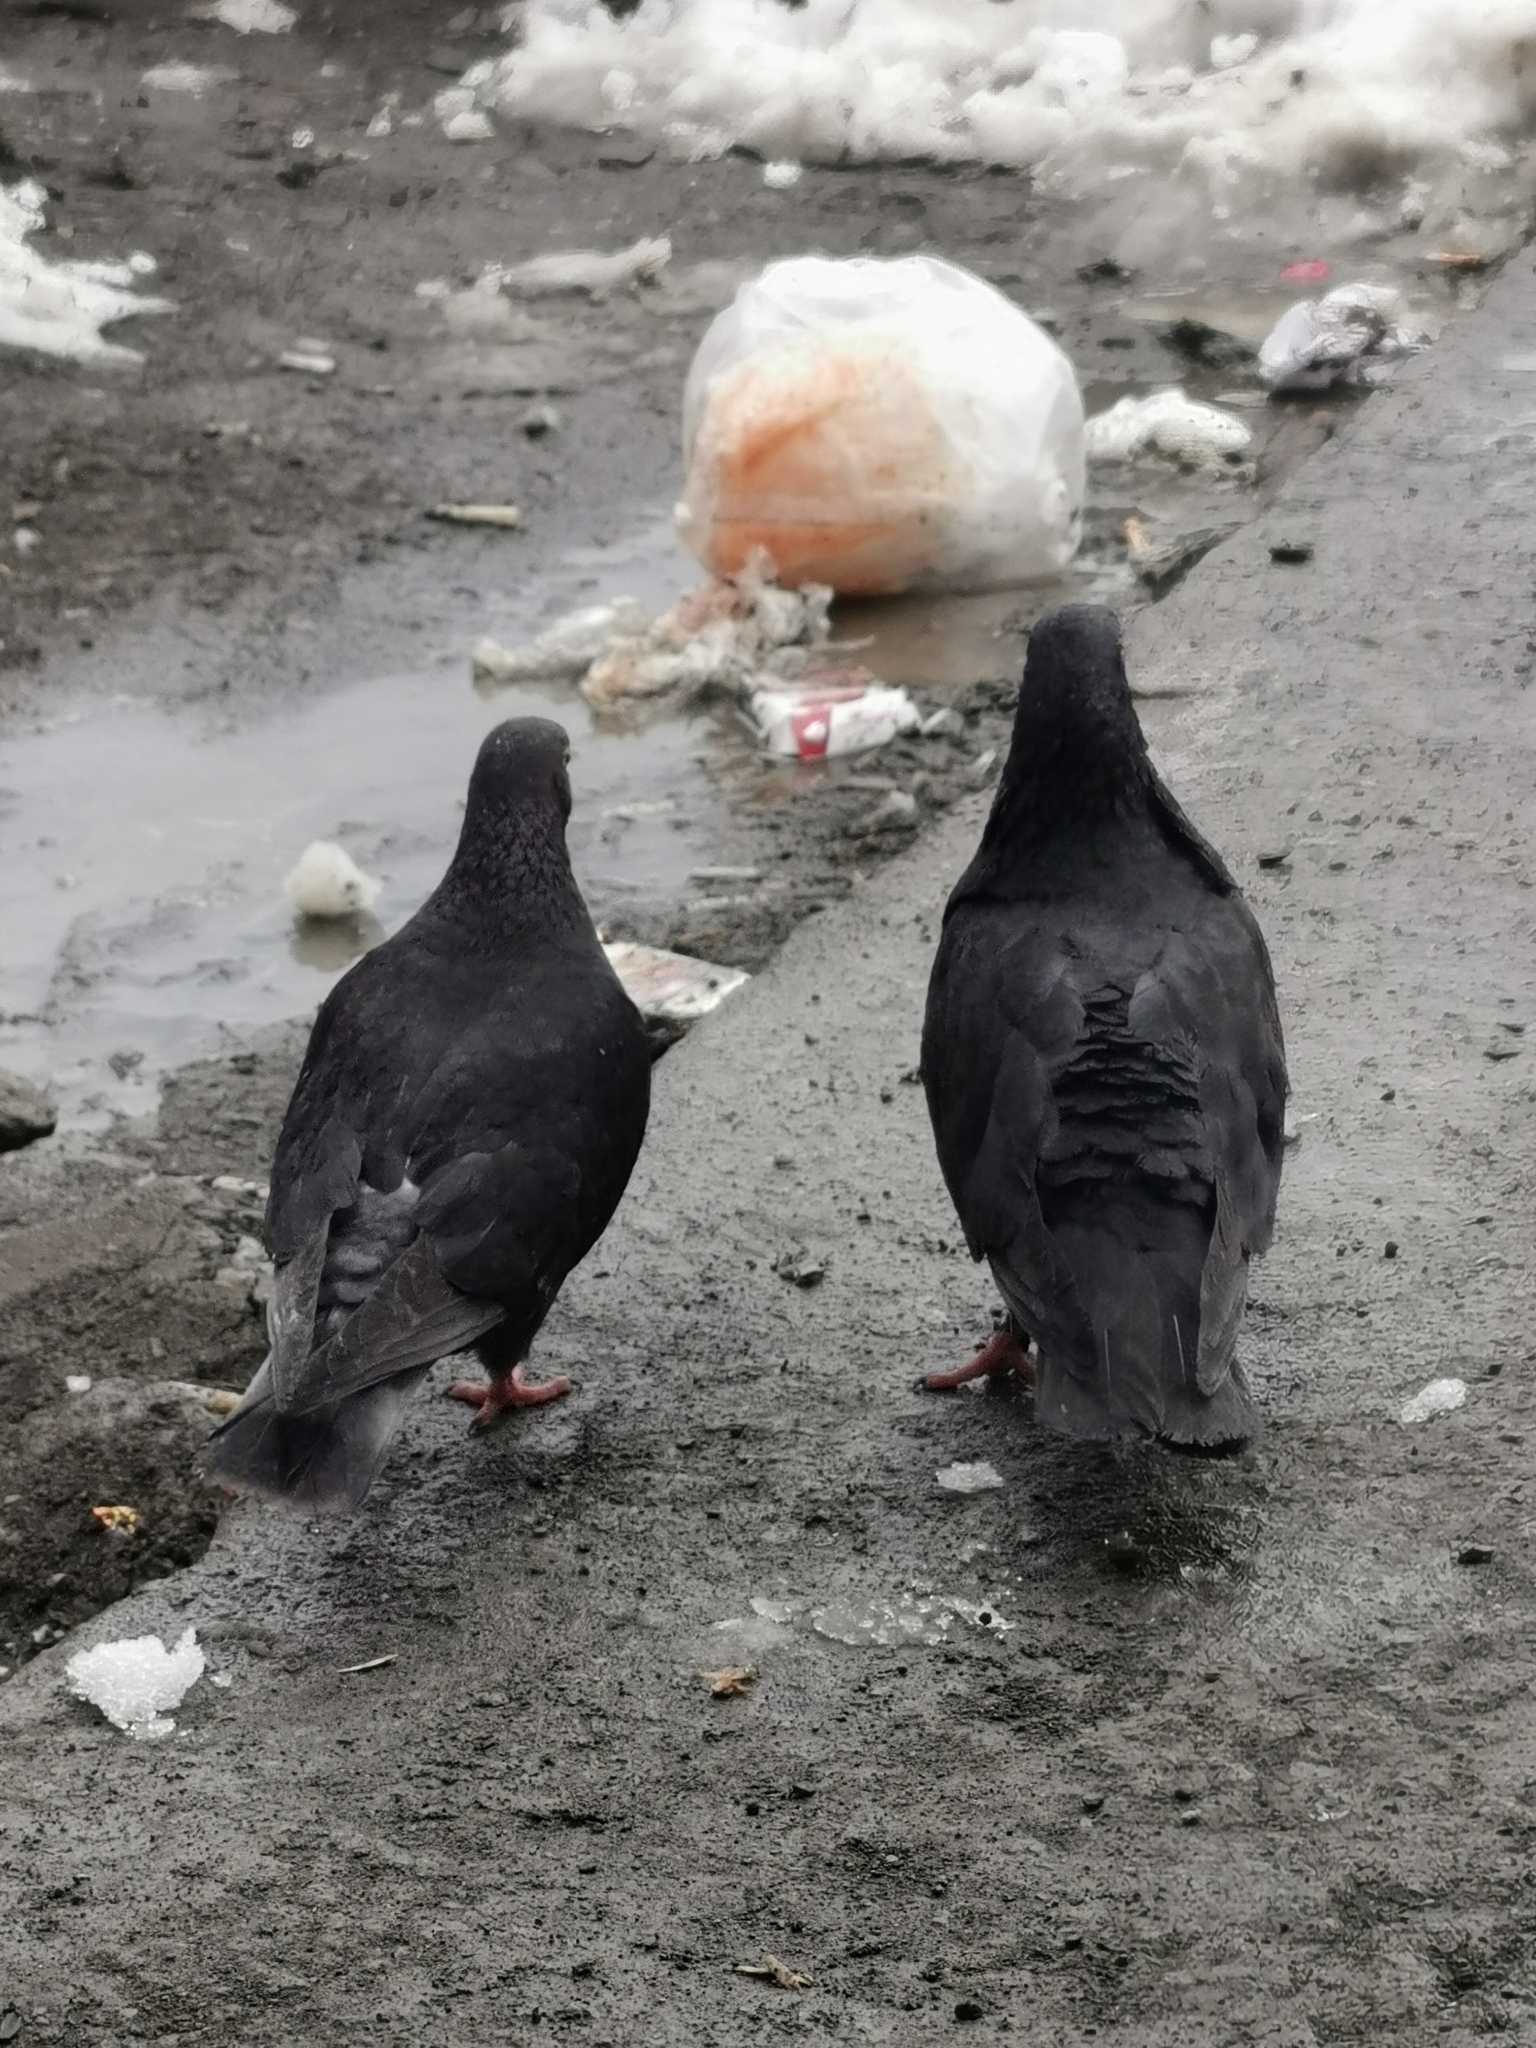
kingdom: Animalia
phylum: Chordata
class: Aves
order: Columbiformes
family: Columbidae
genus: Columba
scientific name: Columba livia
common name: Rock pigeon
